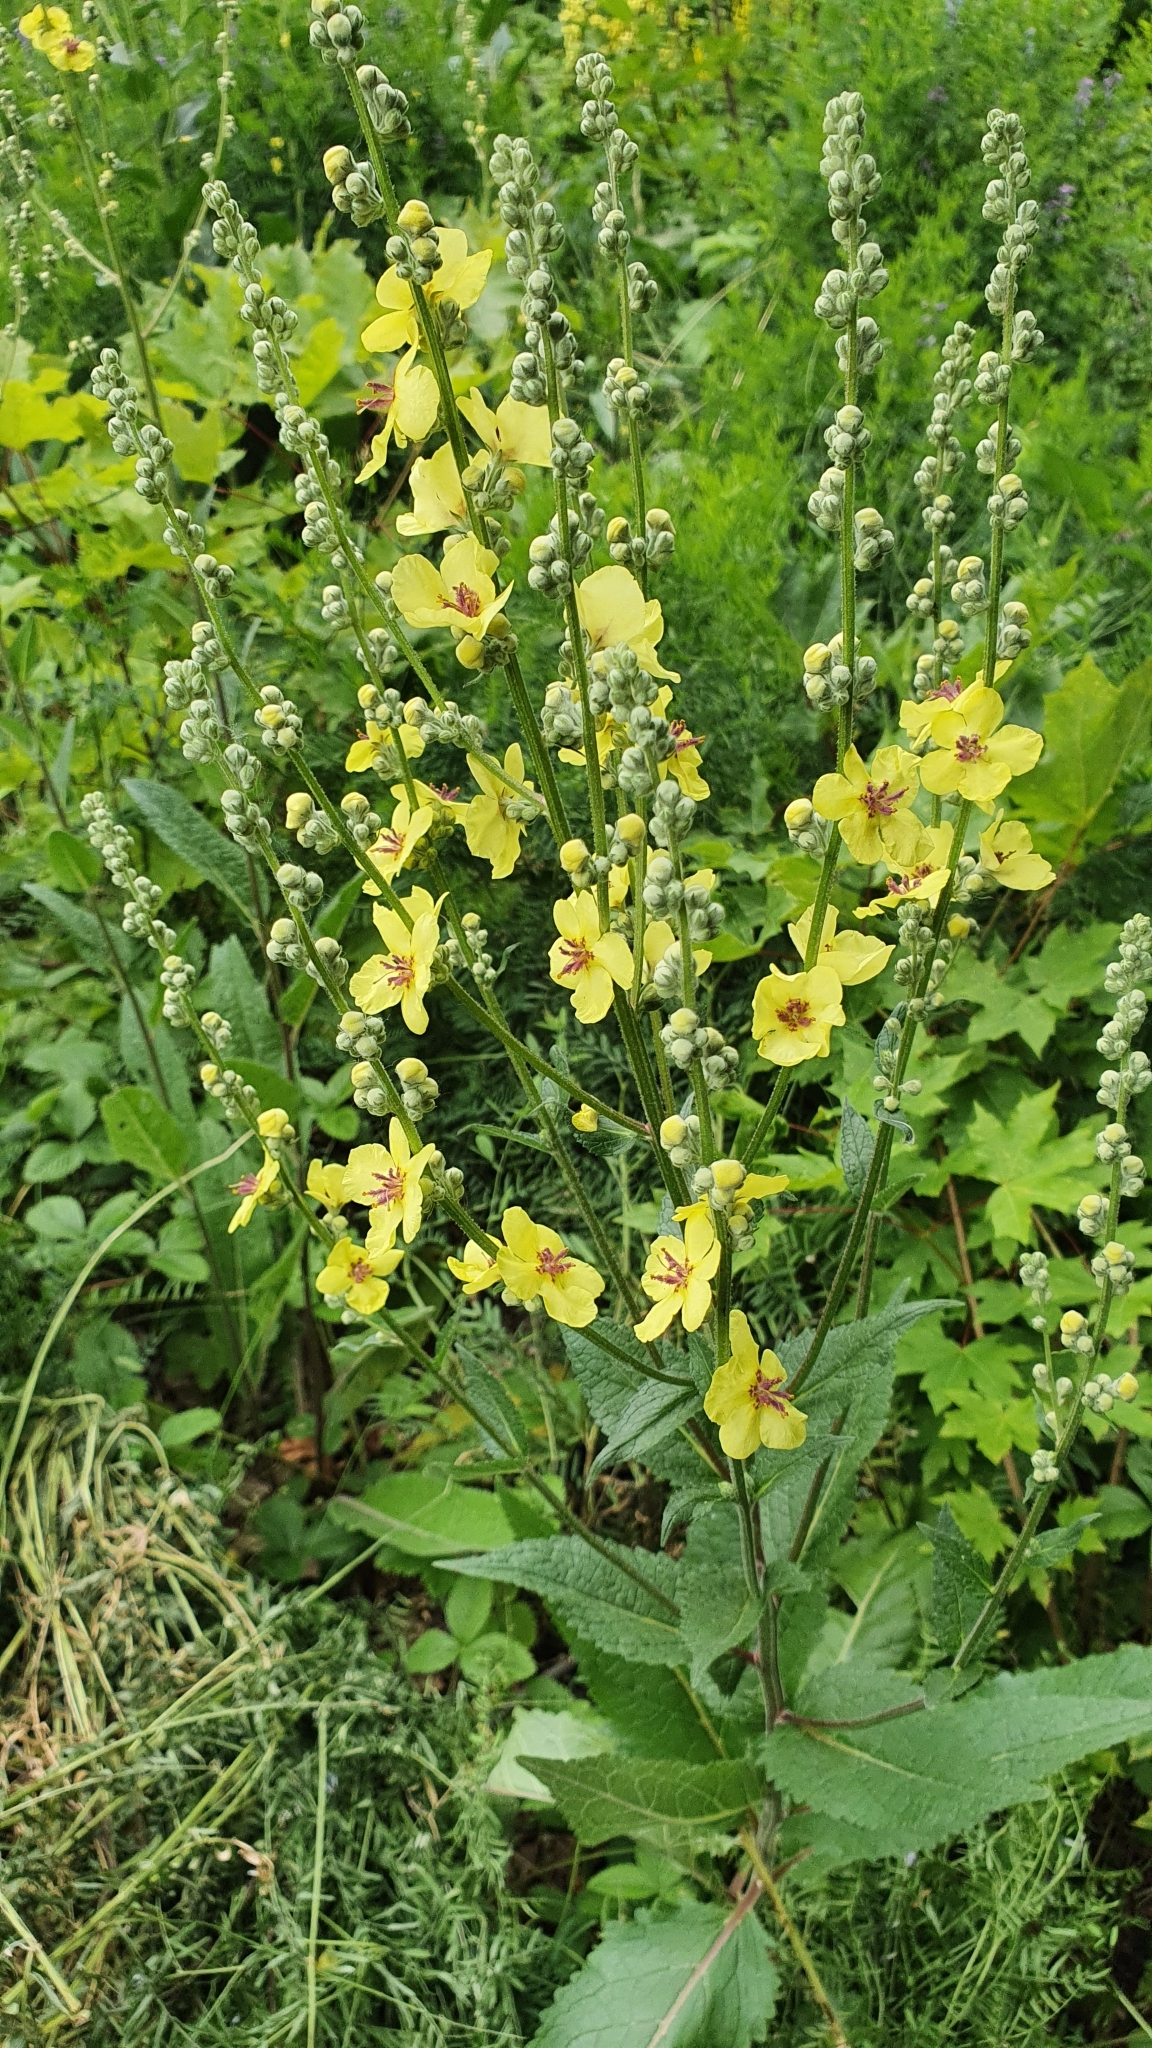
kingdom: Plantae
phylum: Tracheophyta
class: Magnoliopsida
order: Lamiales
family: Scrophulariaceae
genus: Verbascum
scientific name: Verbascum chaixii
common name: Nettle-leaved mullein
